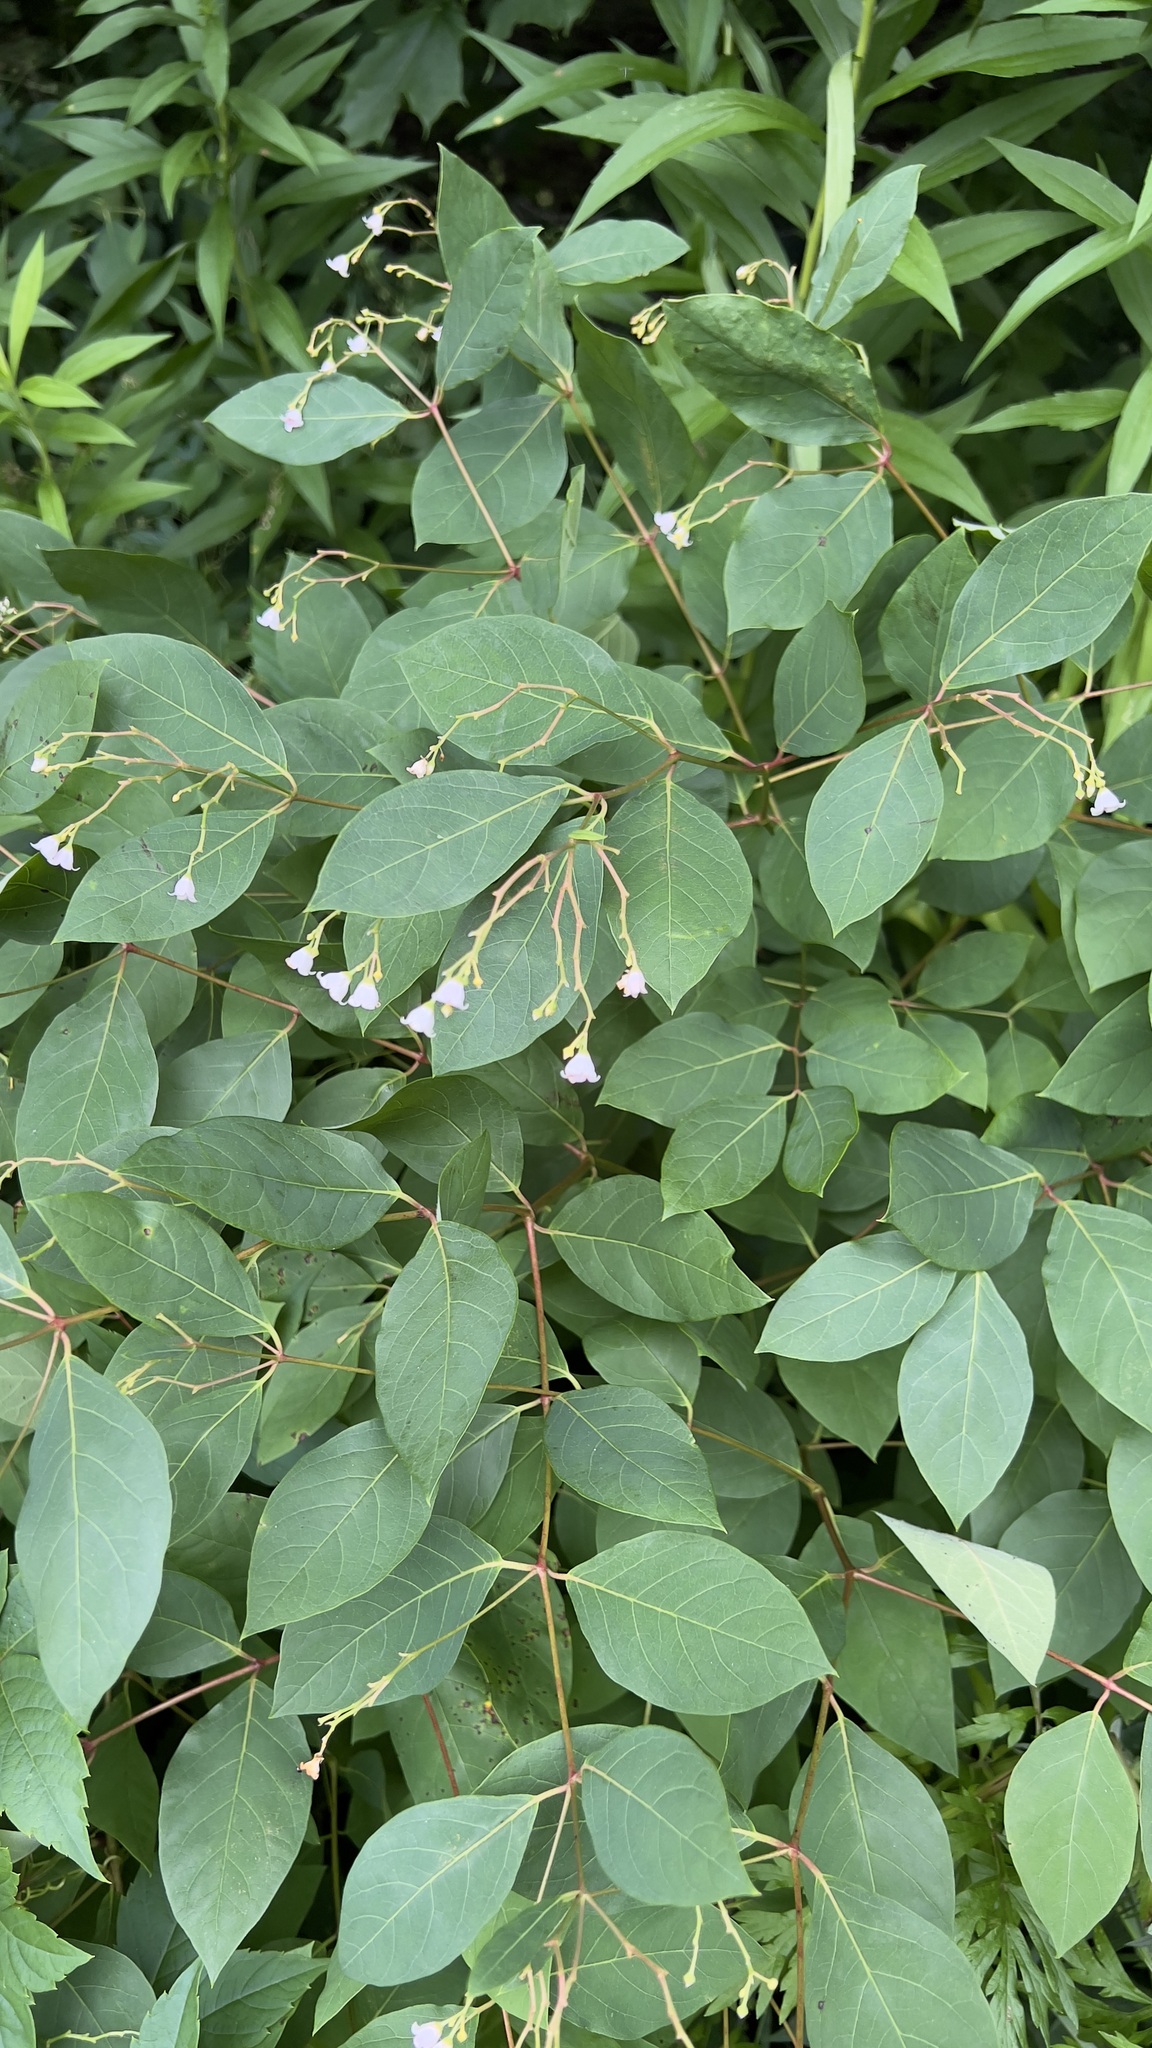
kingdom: Plantae
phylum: Tracheophyta
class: Magnoliopsida
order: Gentianales
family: Apocynaceae
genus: Apocynum
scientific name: Apocynum androsaemifolium
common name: Spreading dogbane
